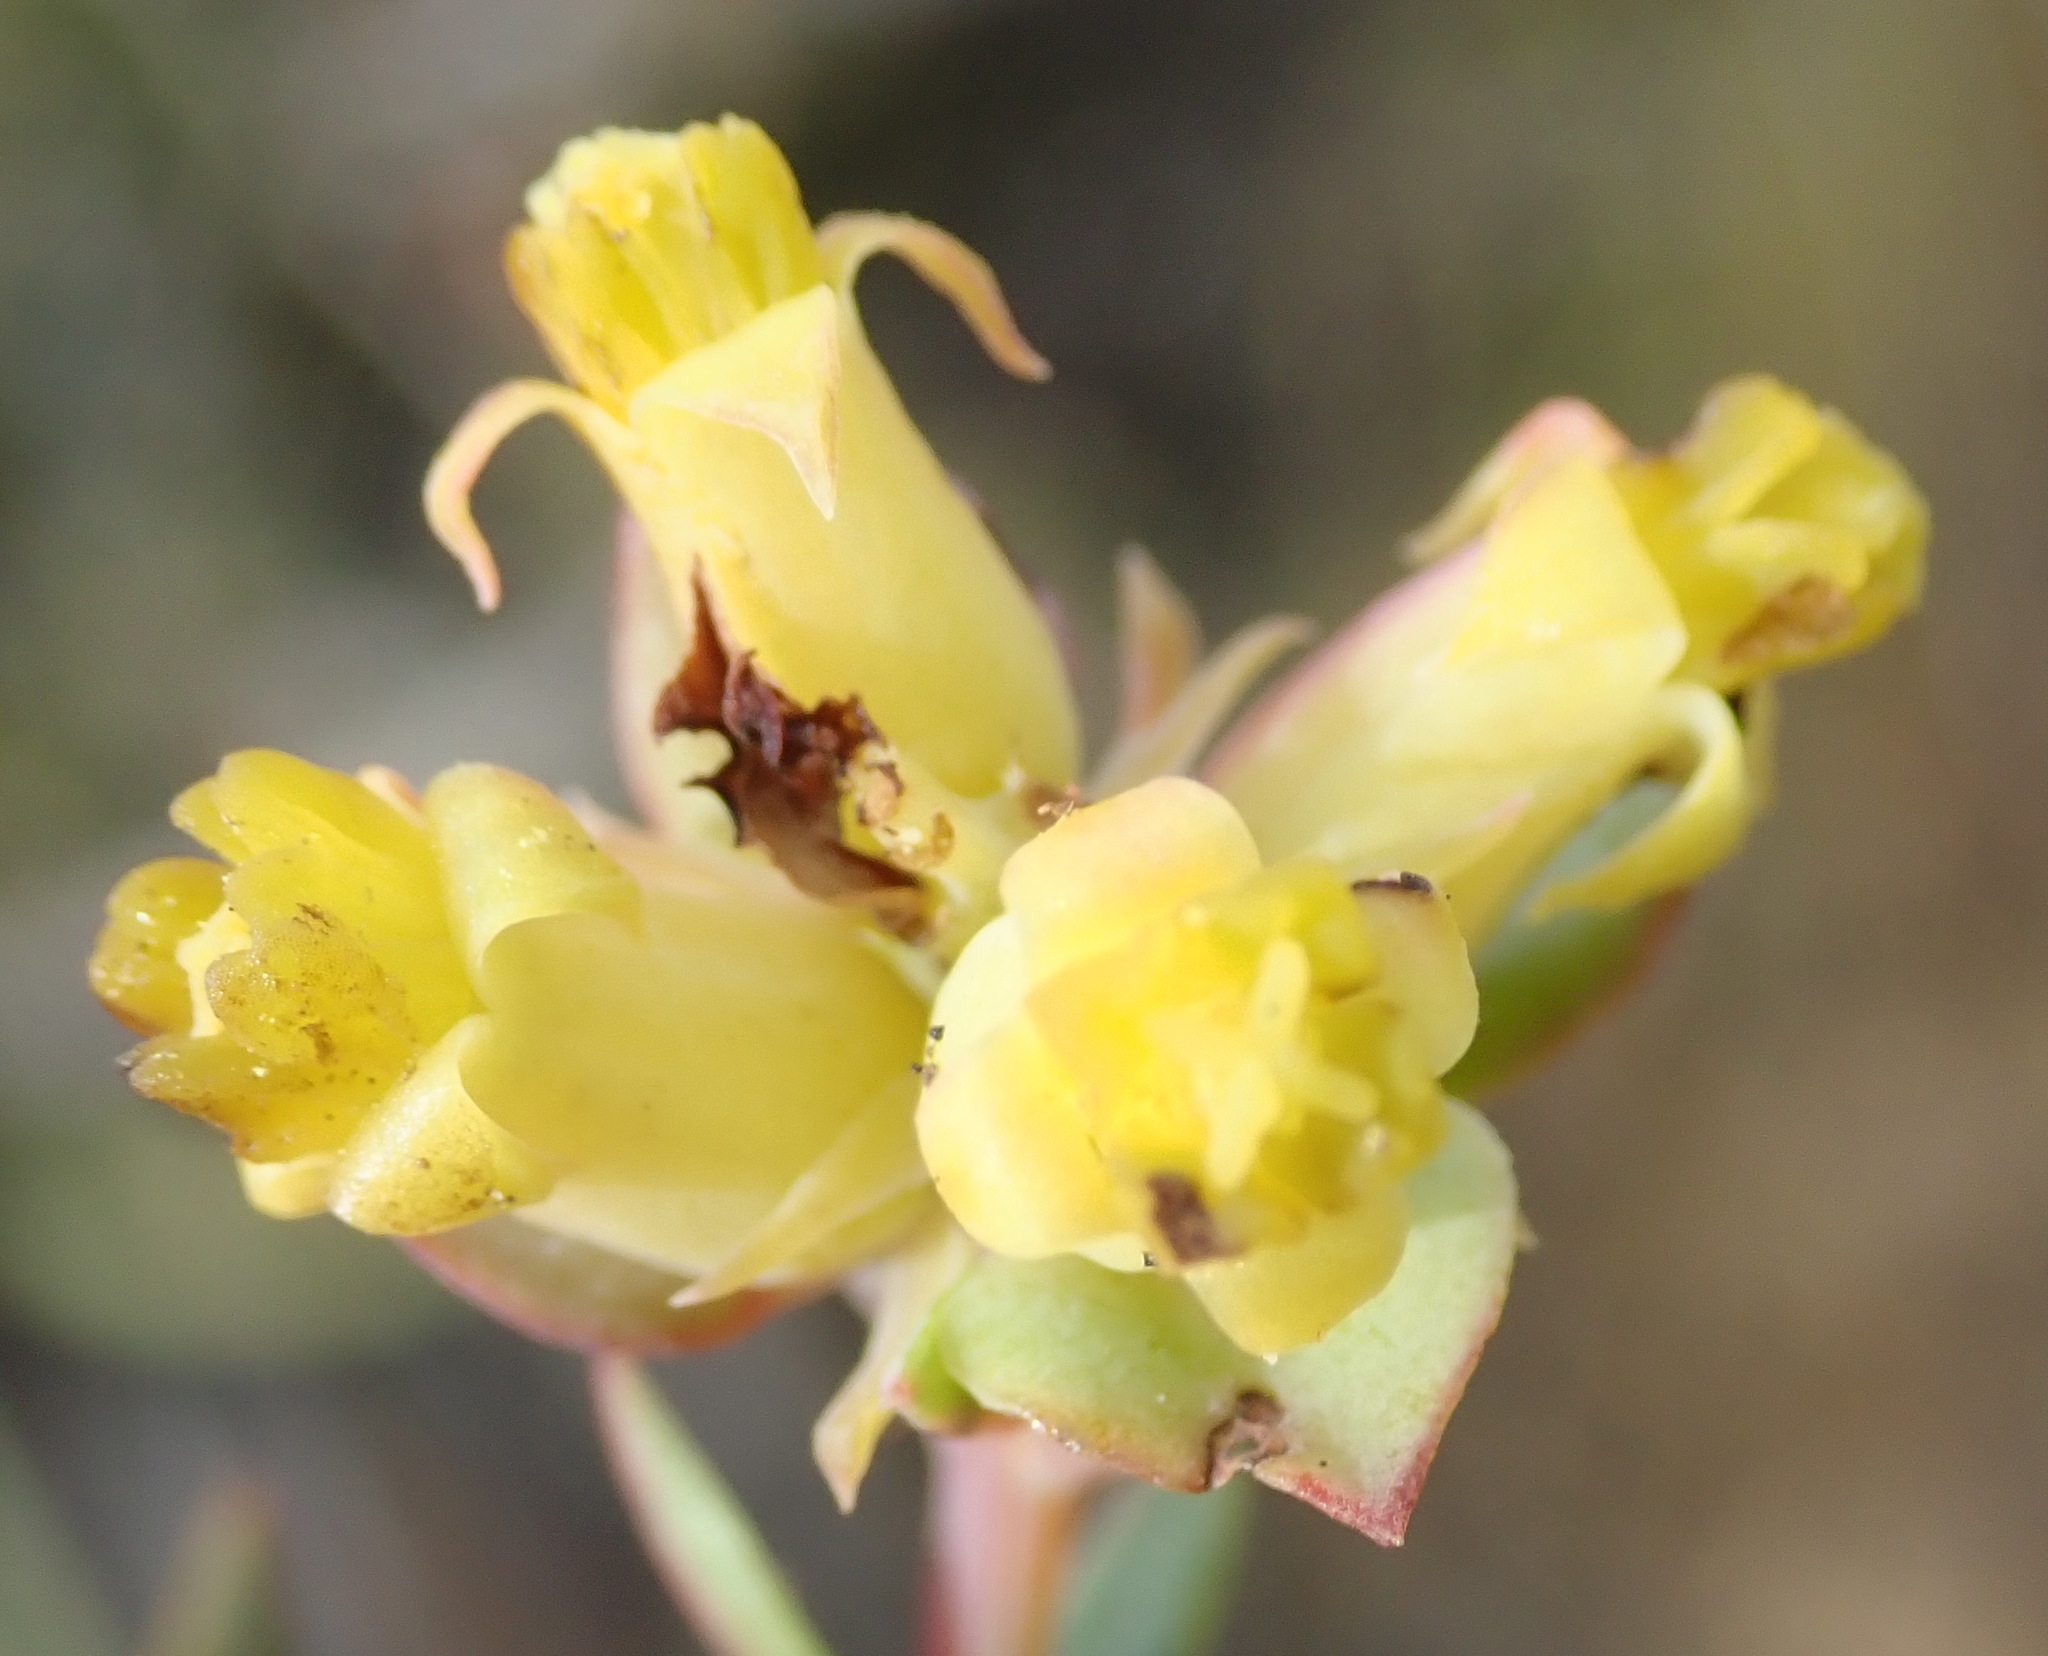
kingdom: Plantae
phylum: Tracheophyta
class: Magnoliopsida
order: Myrtales
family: Penaeaceae
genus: Penaea
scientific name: Penaea acutifolia
